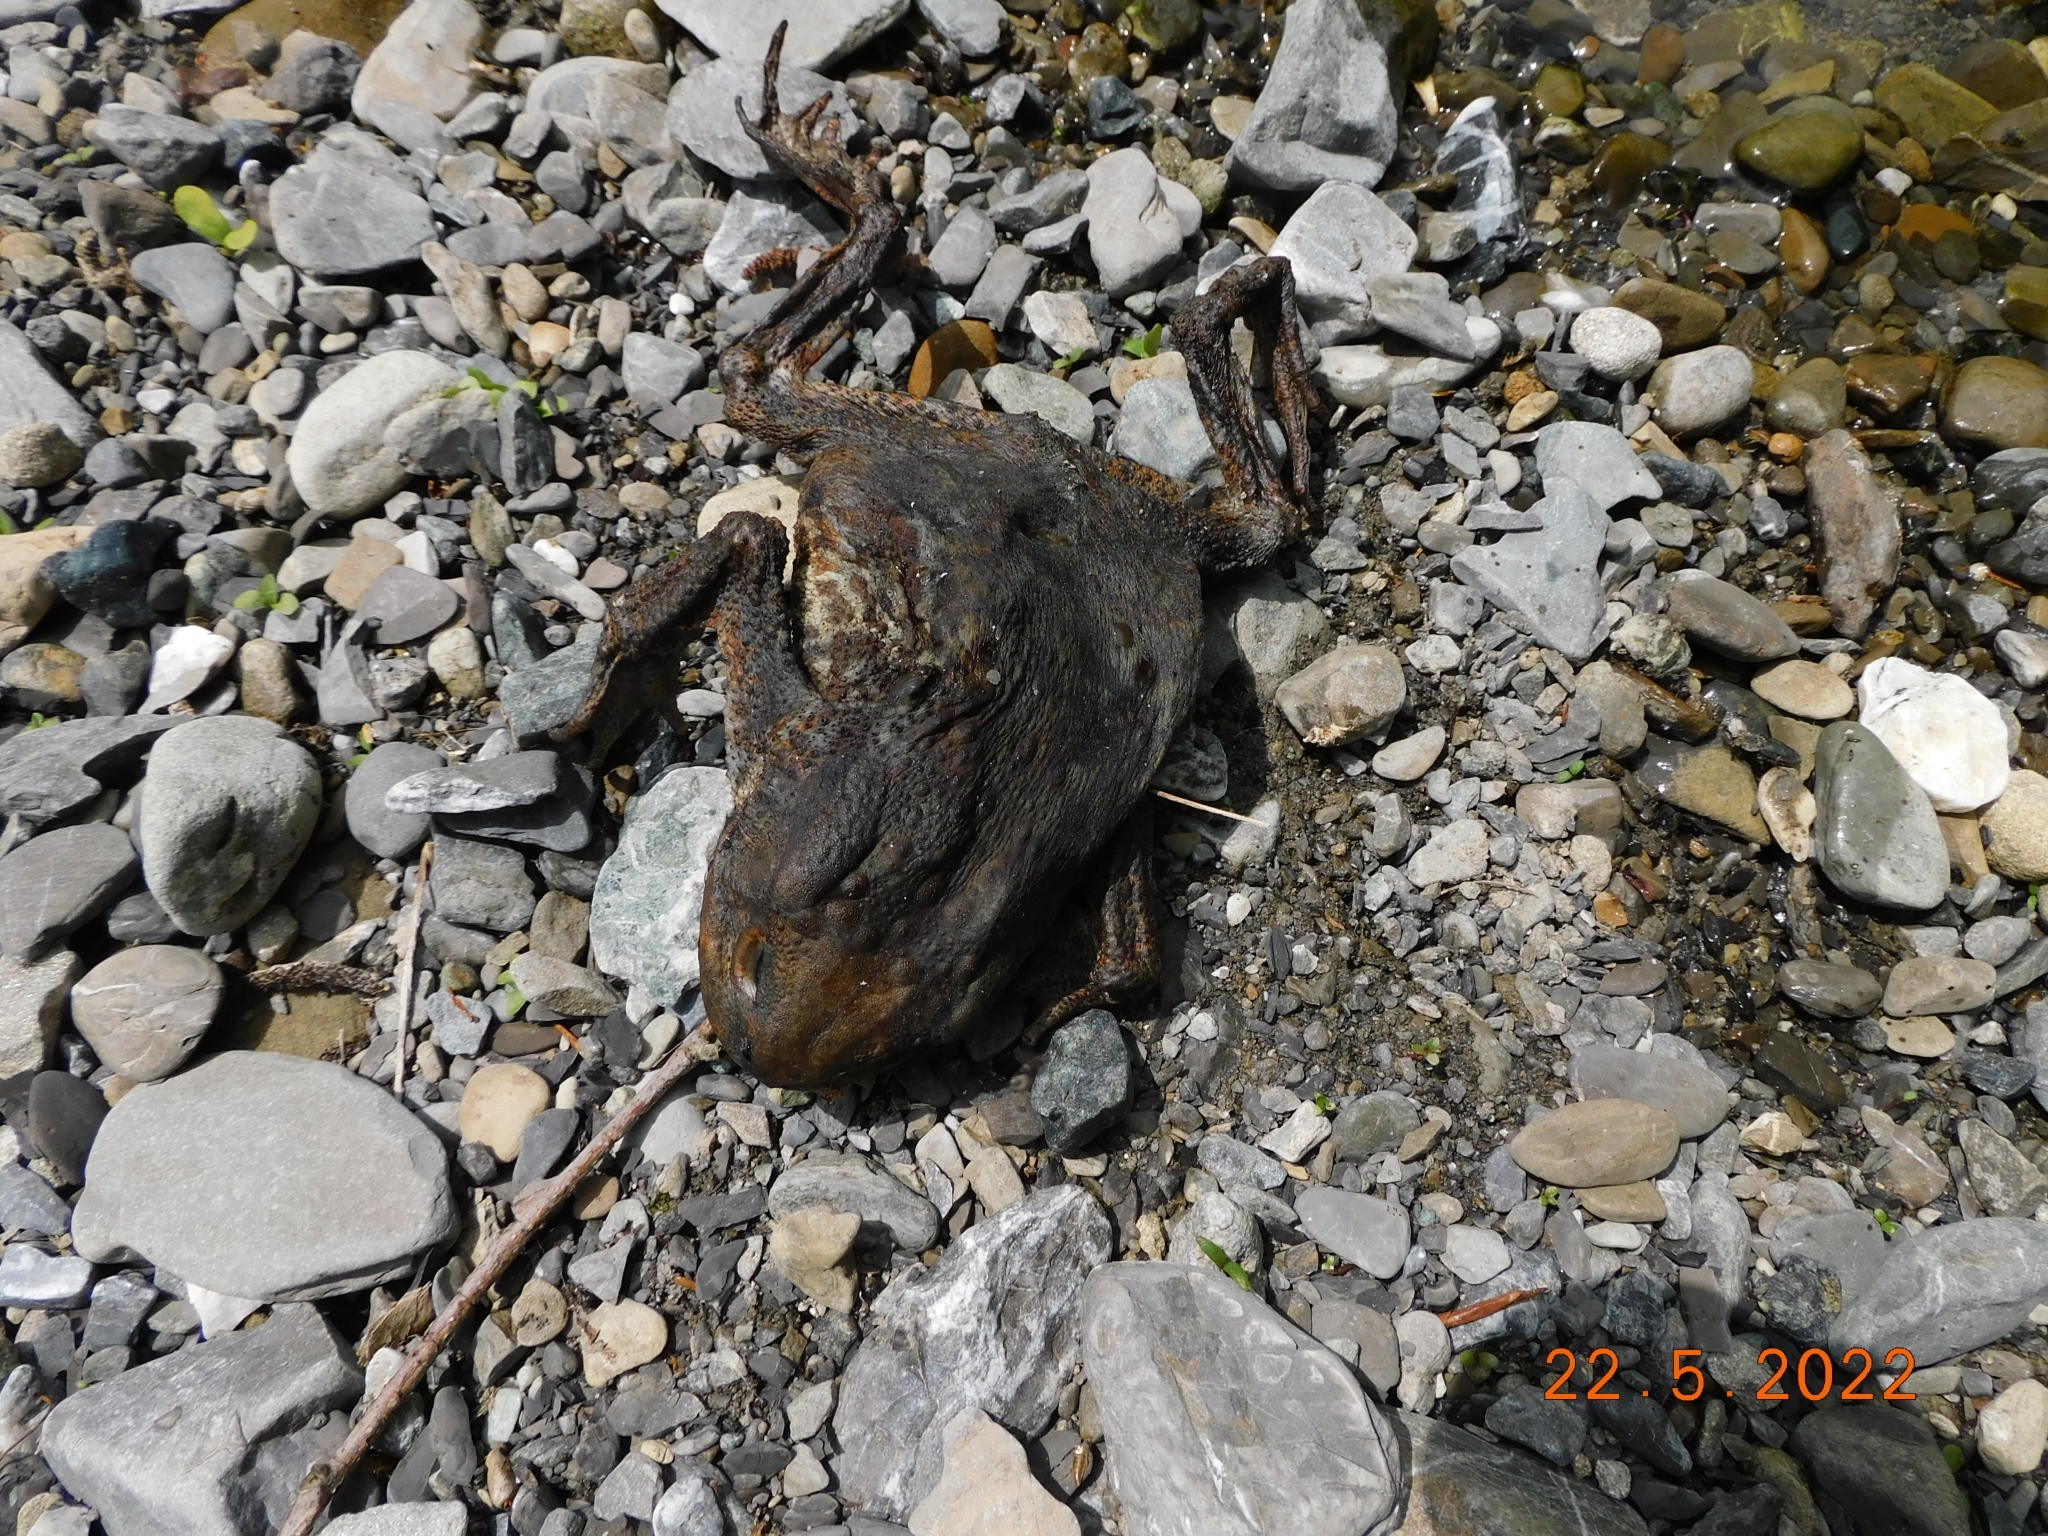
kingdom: Animalia
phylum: Chordata
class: Amphibia
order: Anura
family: Bufonidae
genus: Bufo
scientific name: Bufo bufo
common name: Common toad
